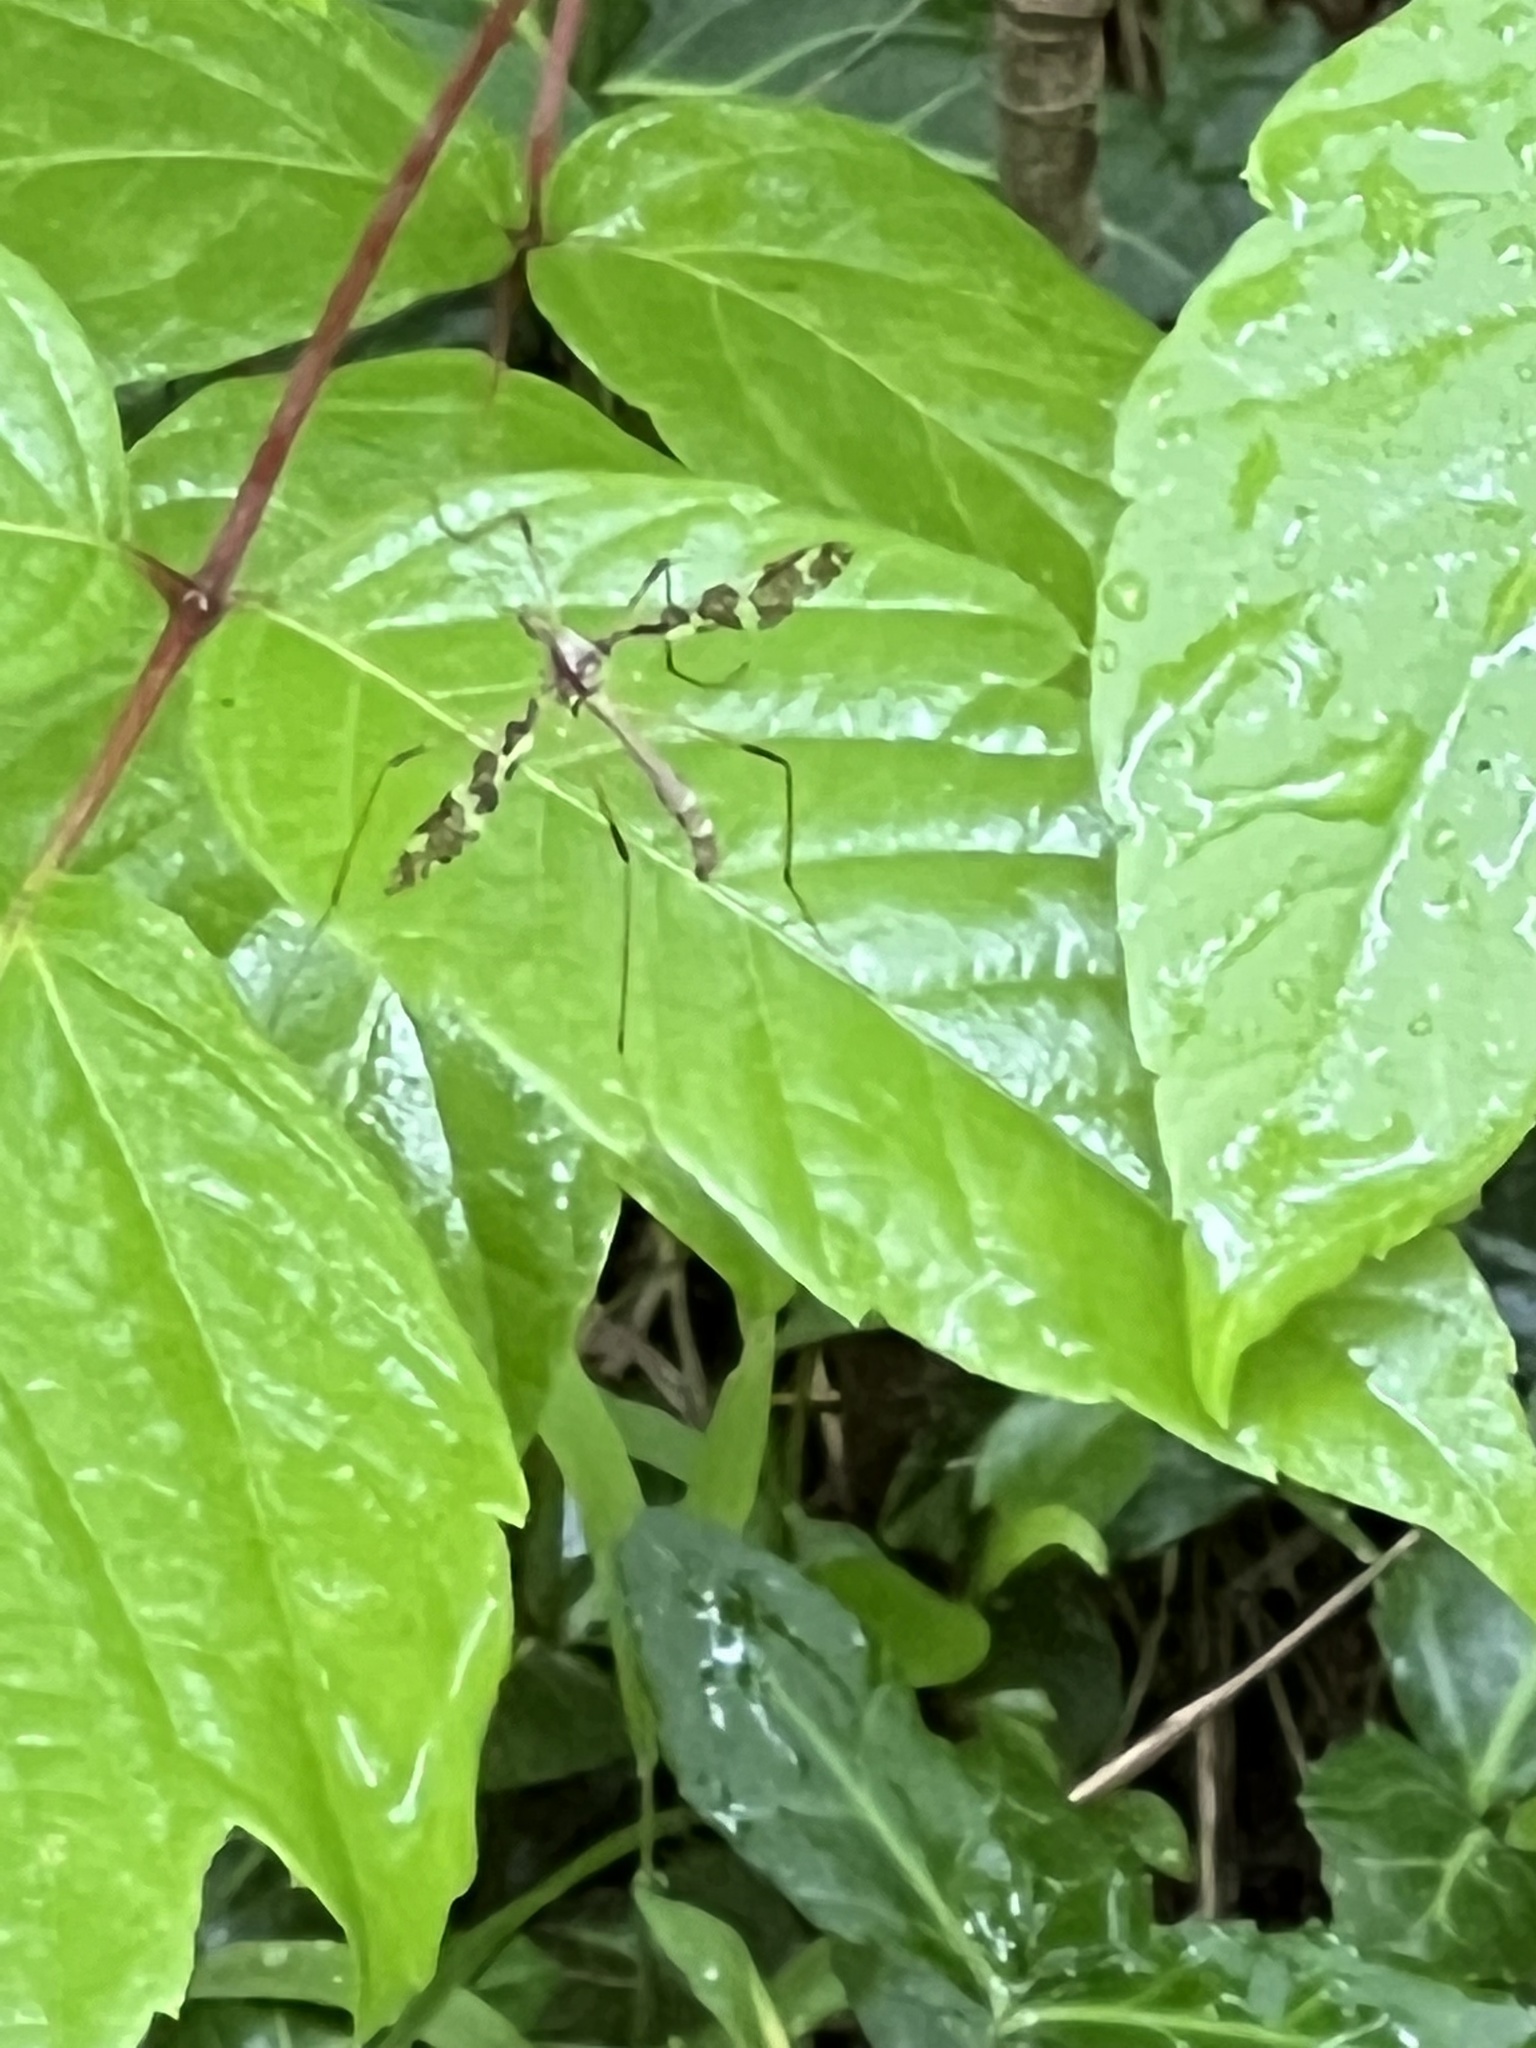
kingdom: Animalia
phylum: Arthropoda
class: Insecta
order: Diptera
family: Limoniidae
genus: Epiphragma
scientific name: Epiphragma fasciapenne
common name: Band-winged crane fly
